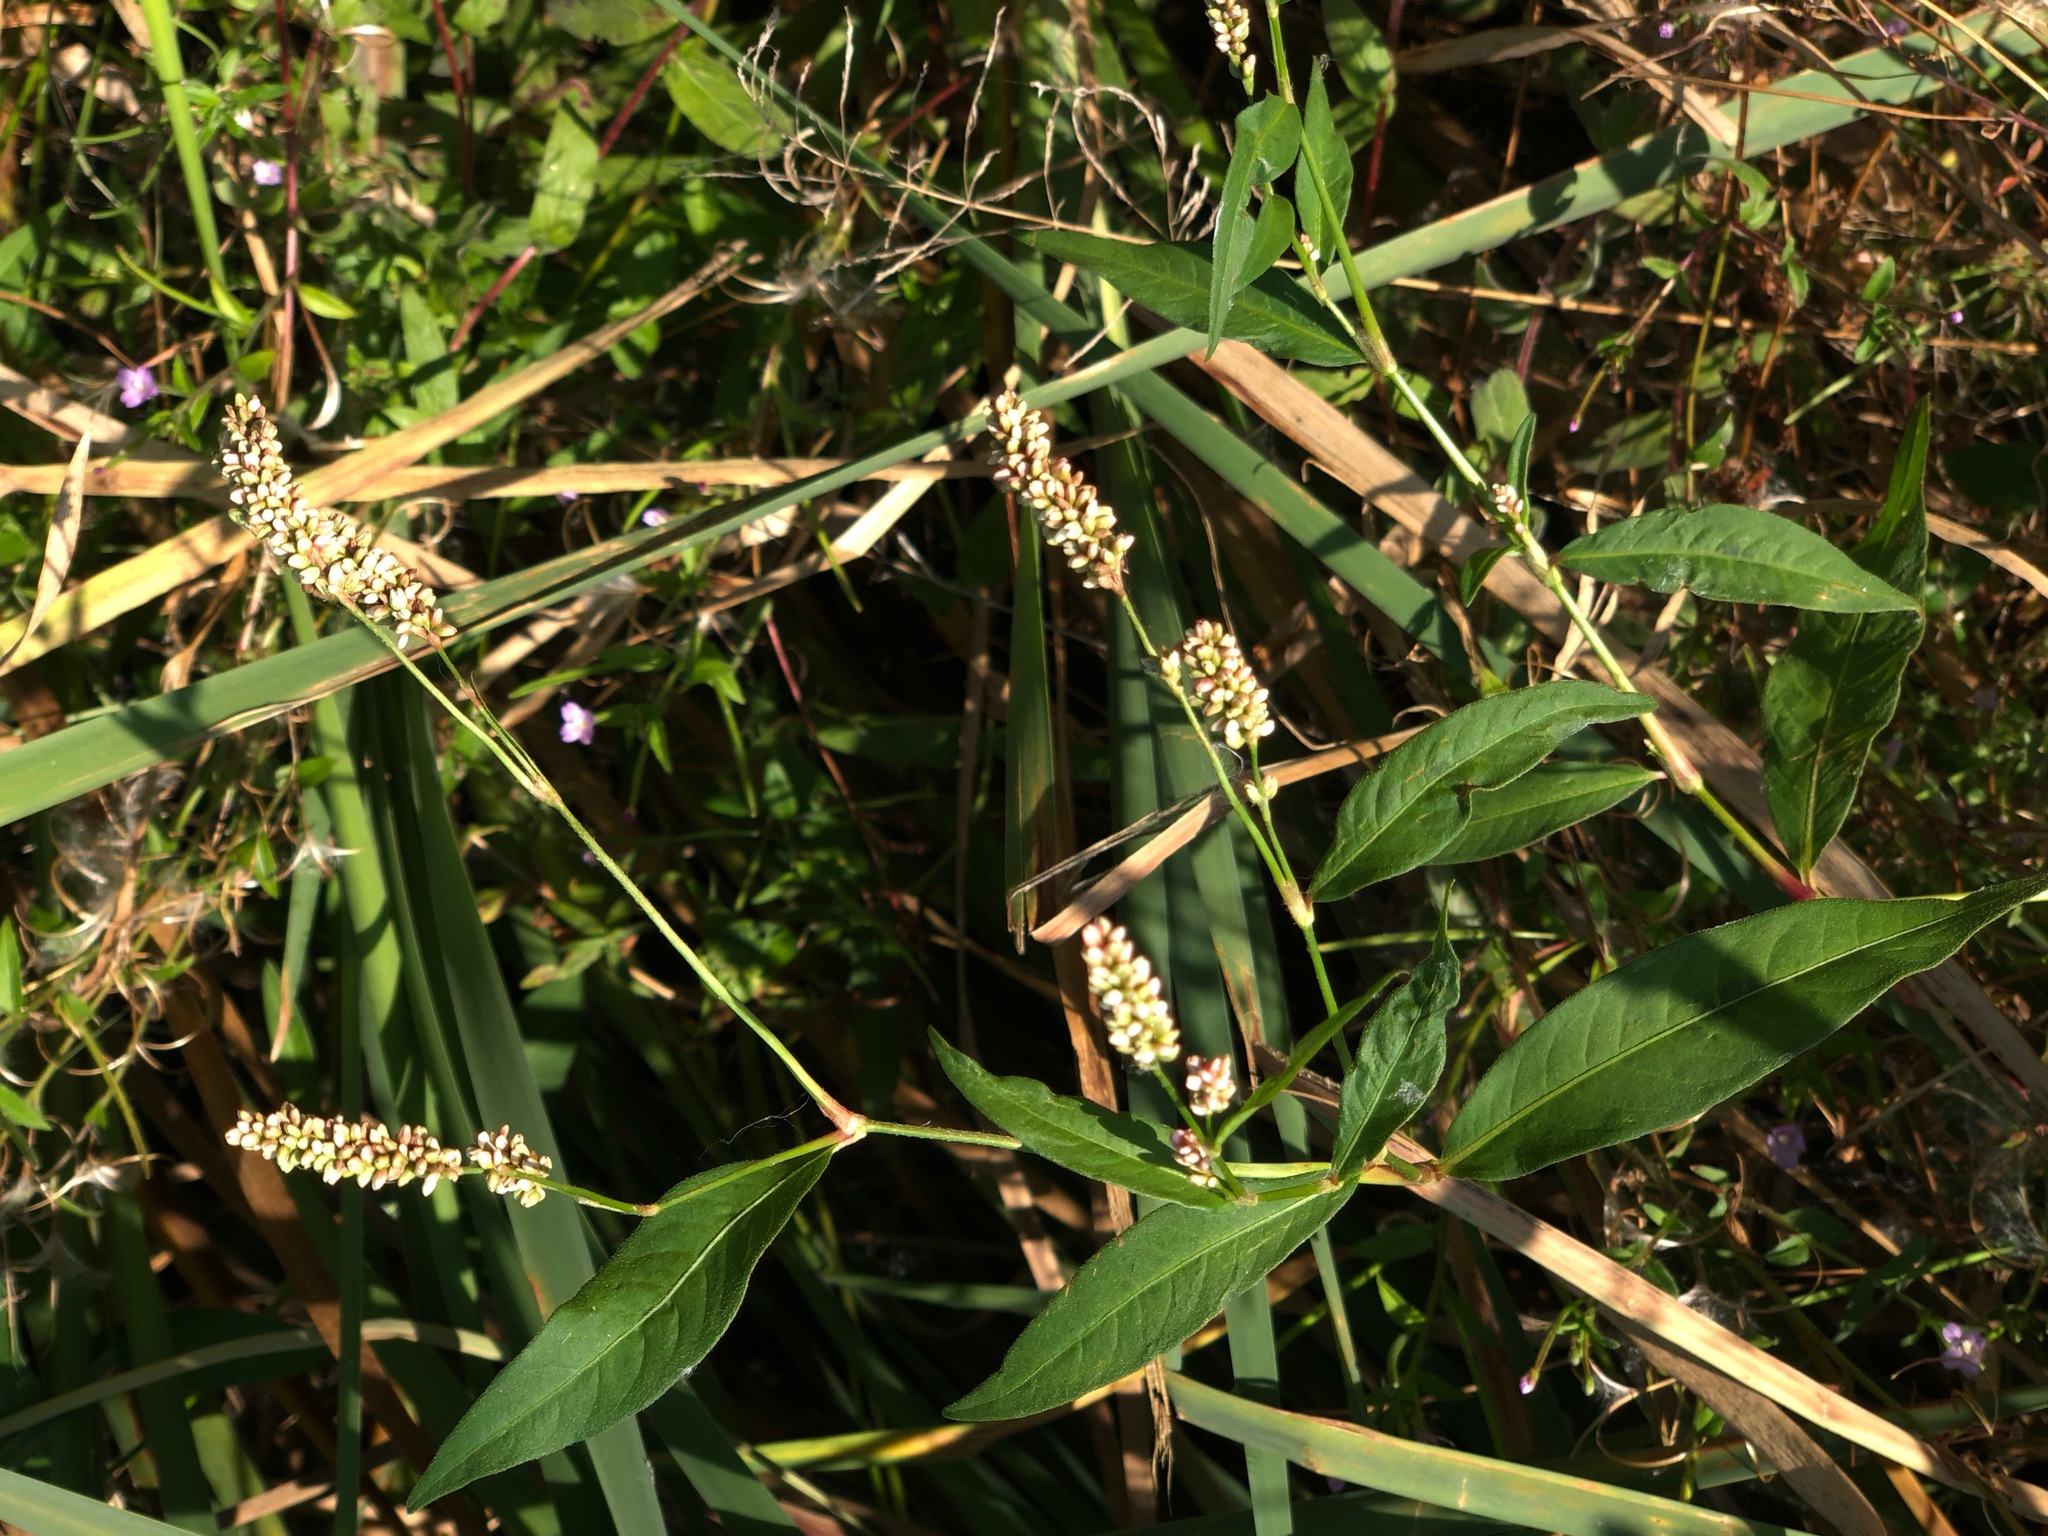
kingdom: Plantae
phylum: Tracheophyta
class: Magnoliopsida
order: Caryophyllales
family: Polygonaceae
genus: Persicaria
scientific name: Persicaria maculosa
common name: Redshank
